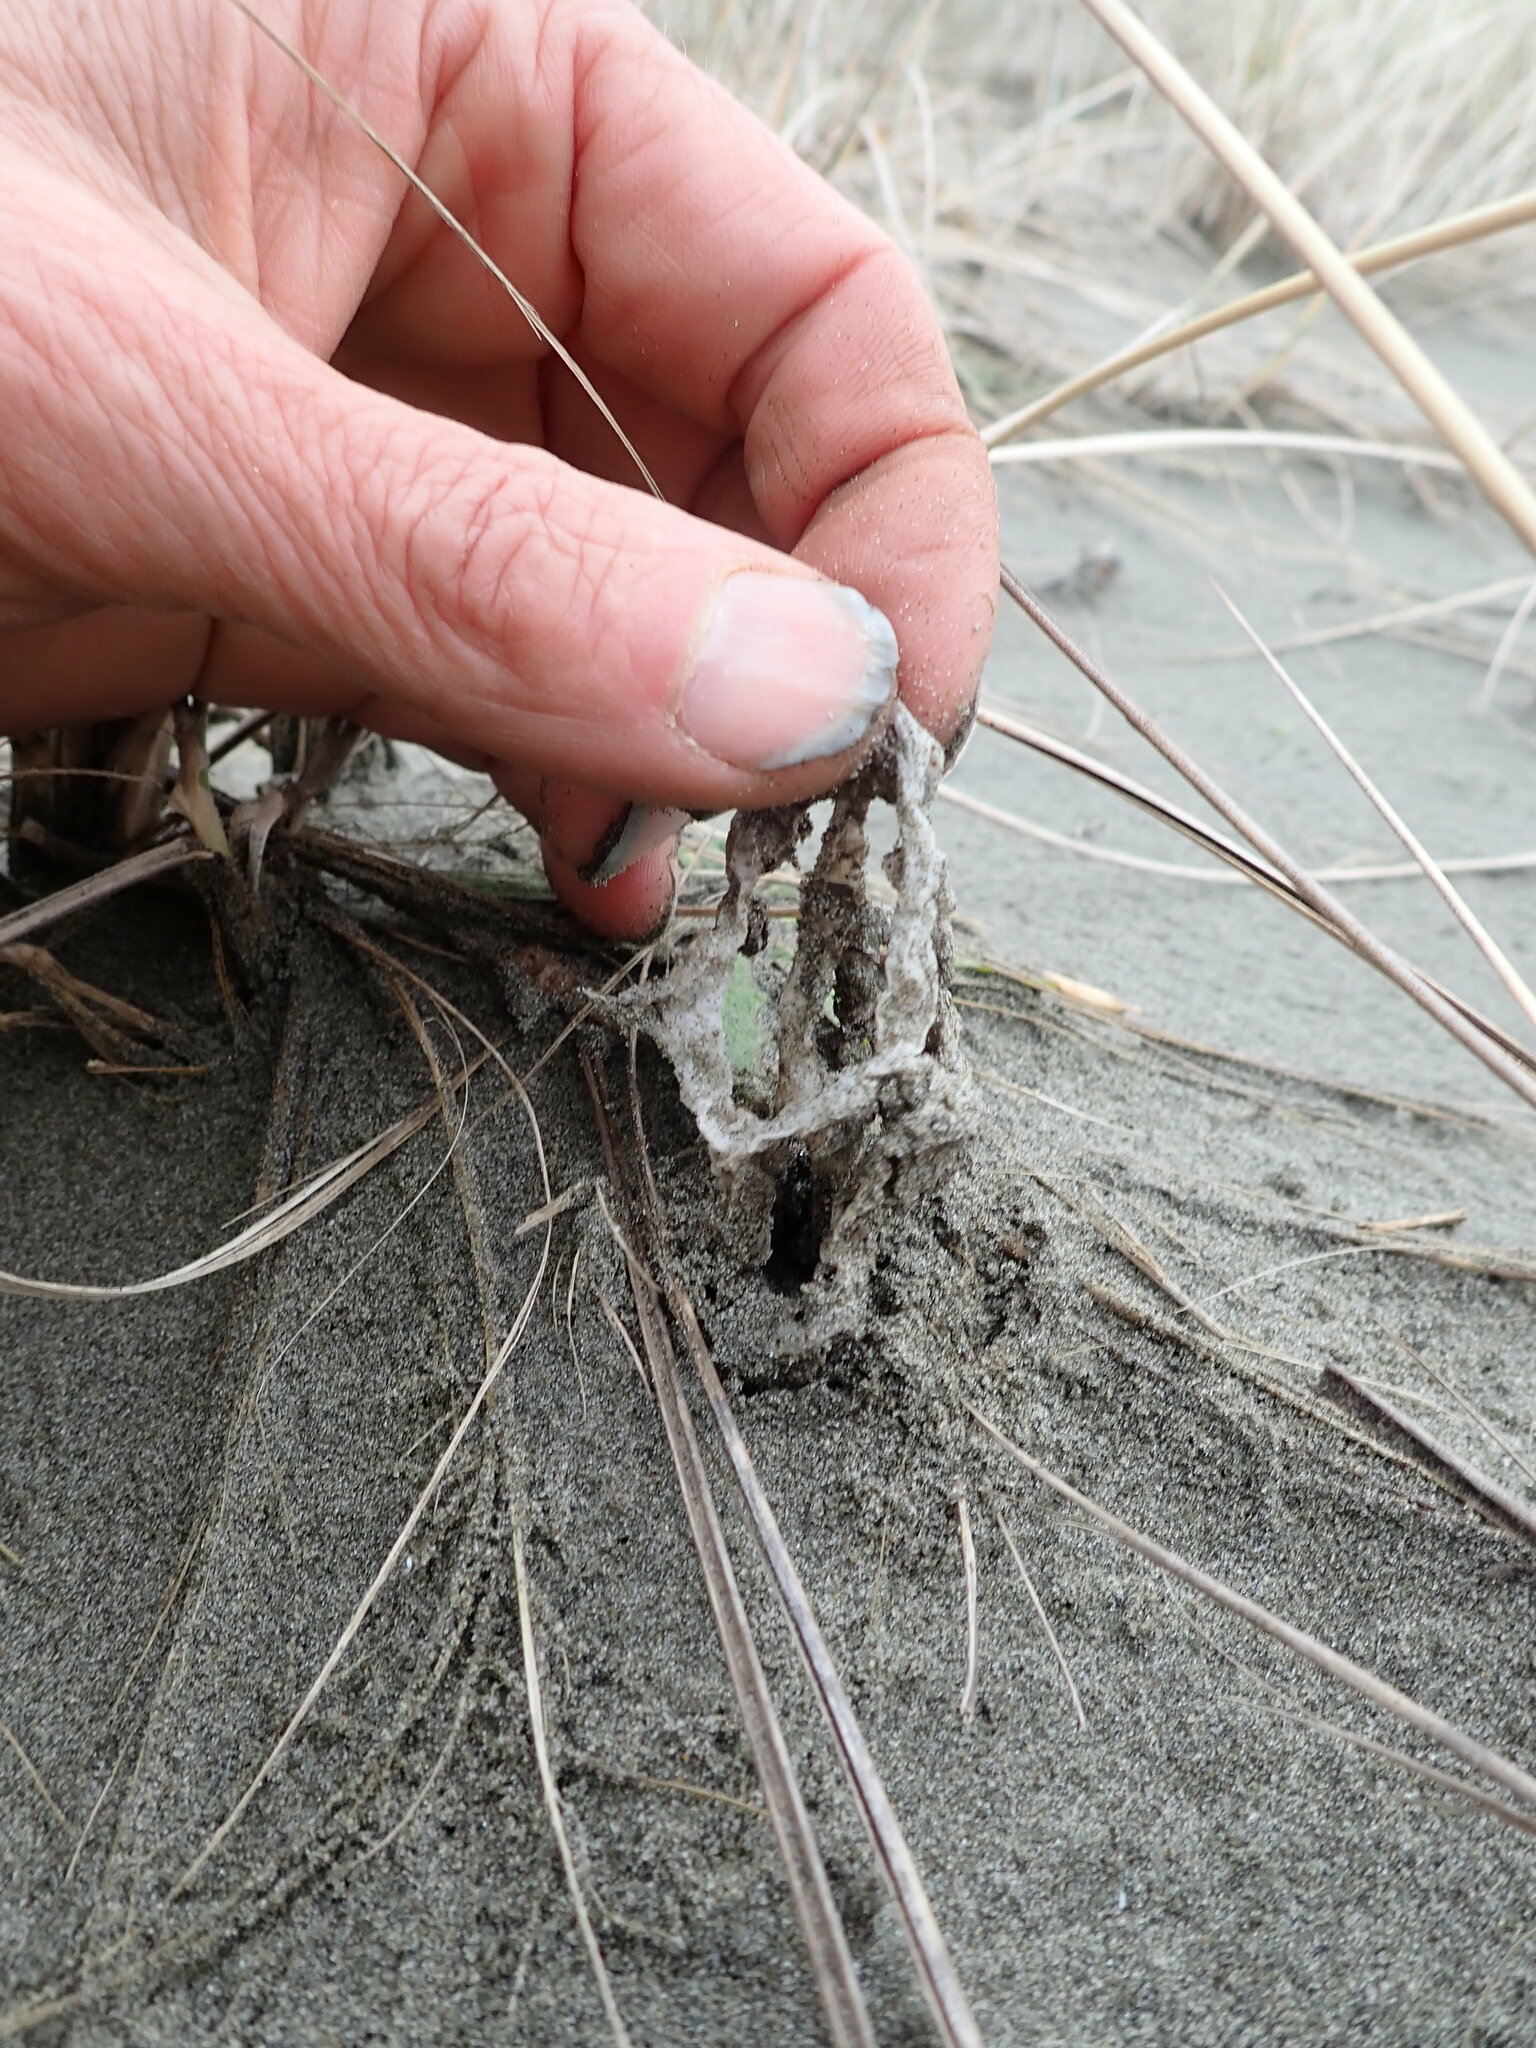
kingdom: Fungi
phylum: Basidiomycota
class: Agaricomycetes
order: Phallales
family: Phallaceae
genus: Ileodictyon
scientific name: Ileodictyon cibarium
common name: Basket fungus
